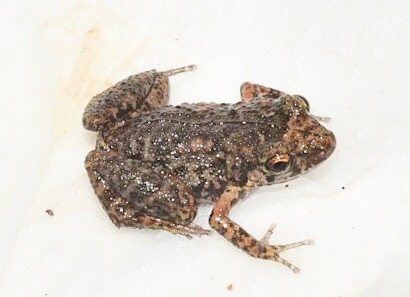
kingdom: Animalia
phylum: Chordata
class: Amphibia
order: Anura
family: Eleutherodactylidae
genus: Eleutherodactylus
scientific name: Eleutherodactylus planirostris
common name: Greenhouse frog
